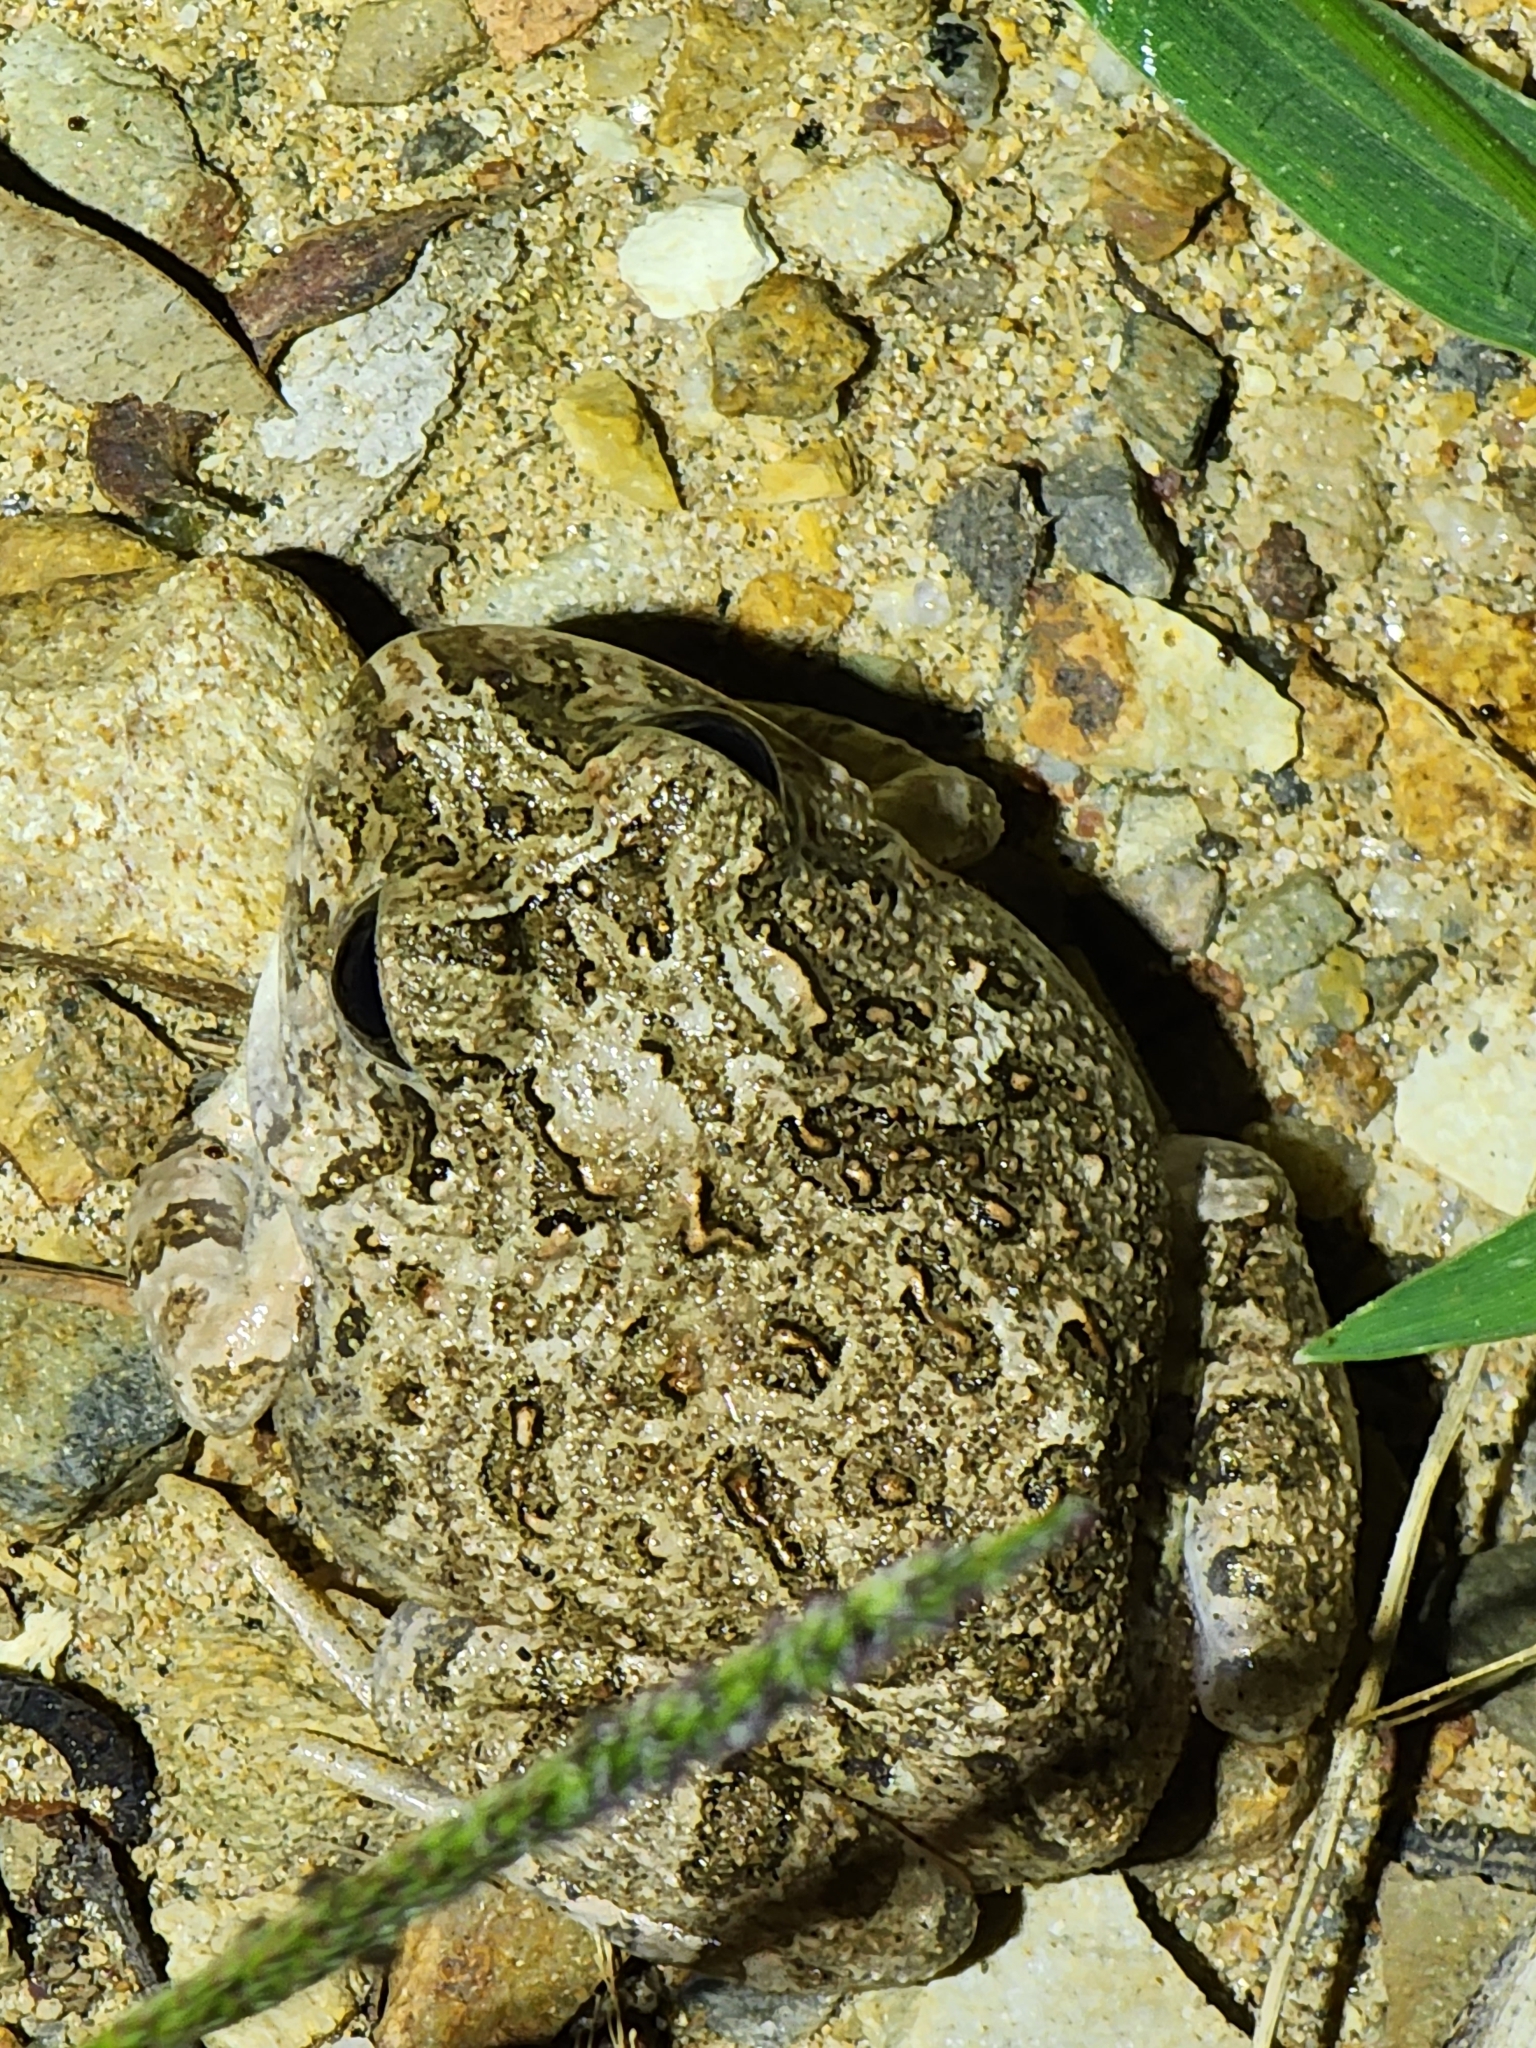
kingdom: Animalia
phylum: Chordata
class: Amphibia
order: Anura
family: Limnodynastidae
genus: Platyplectrum
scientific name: Platyplectrum ornatum
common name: Ornate burrowing frog
